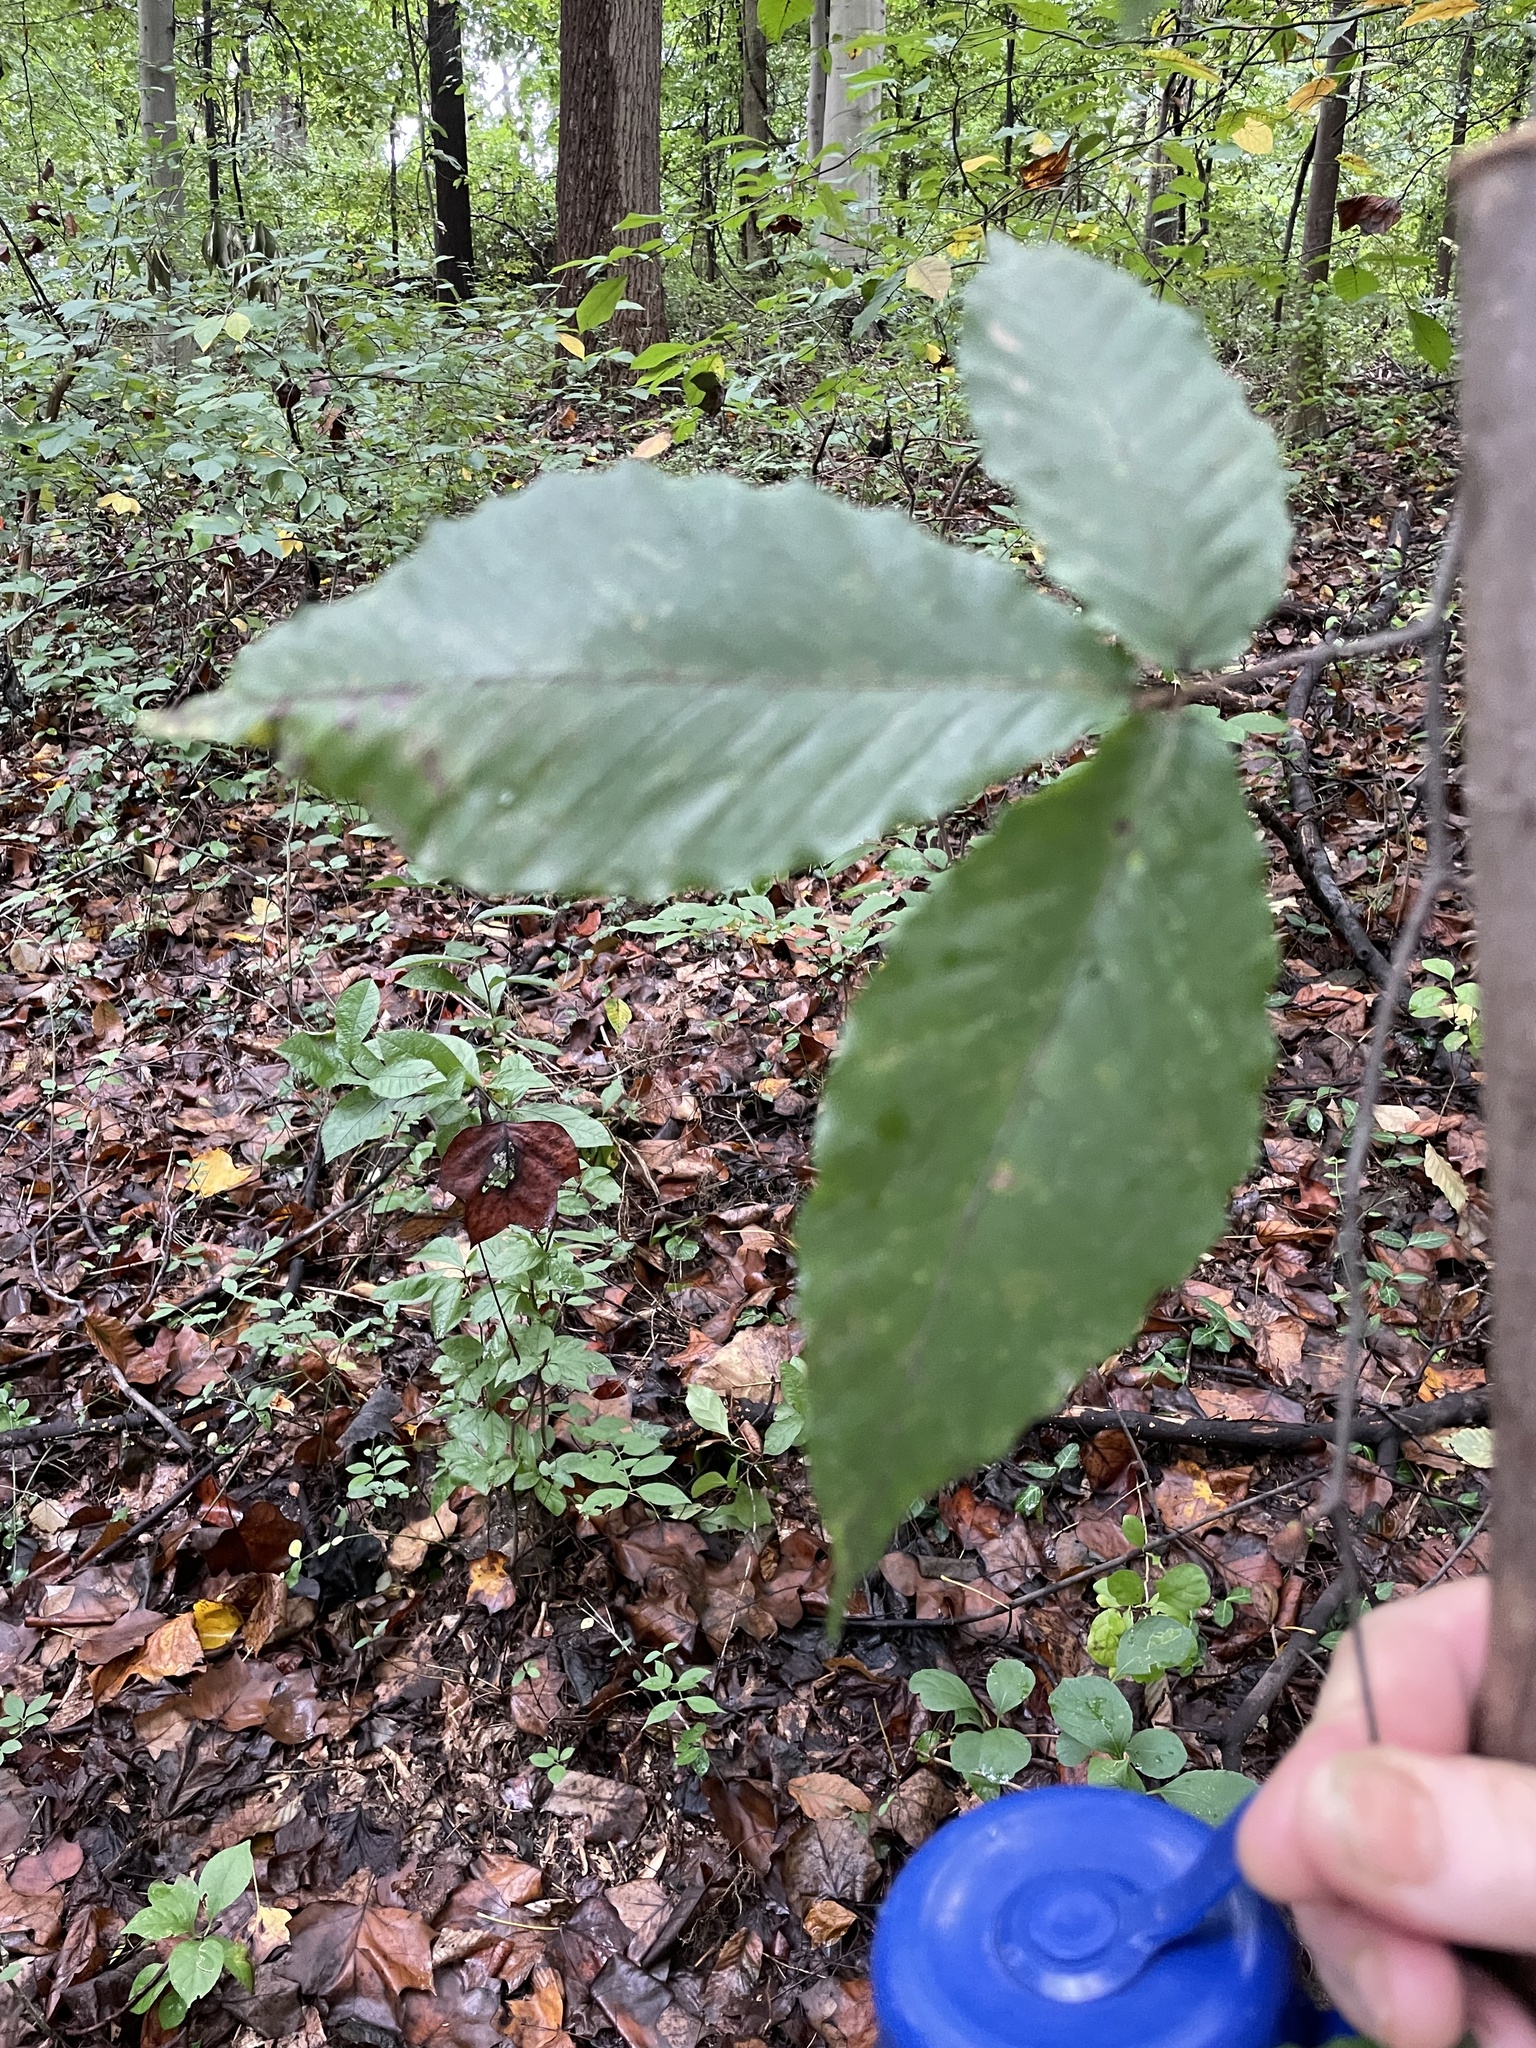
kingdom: Plantae
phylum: Tracheophyta
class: Magnoliopsida
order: Fagales
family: Fagaceae
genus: Fagus
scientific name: Fagus grandifolia
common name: American beech
